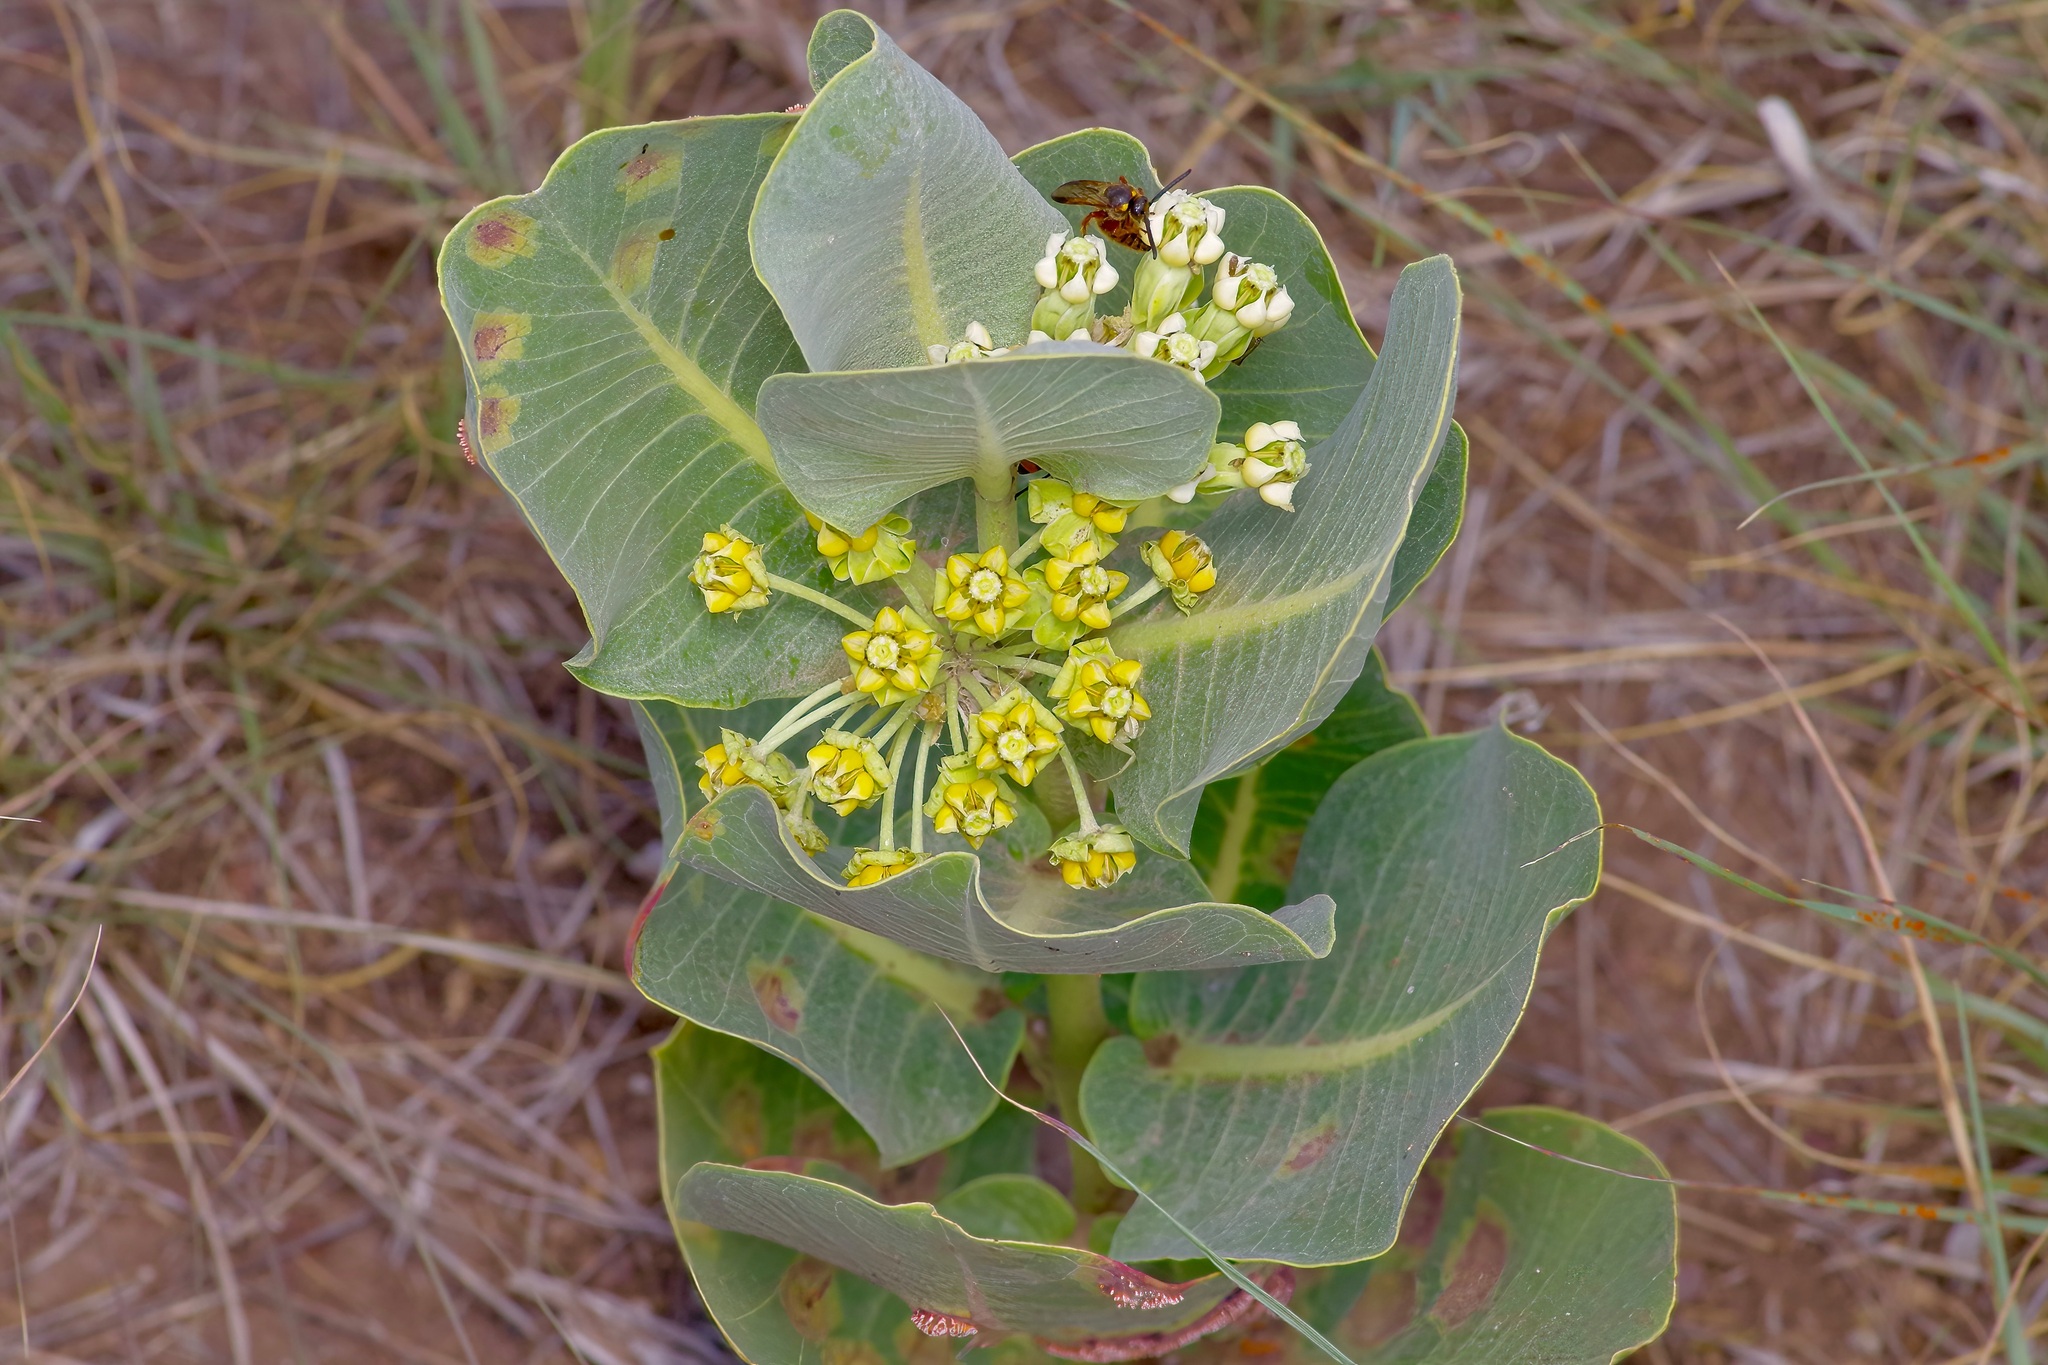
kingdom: Plantae
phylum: Tracheophyta
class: Magnoliopsida
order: Gentianales
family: Apocynaceae
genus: Asclepias
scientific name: Asclepias latifolia
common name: Broadleaf milkweed
